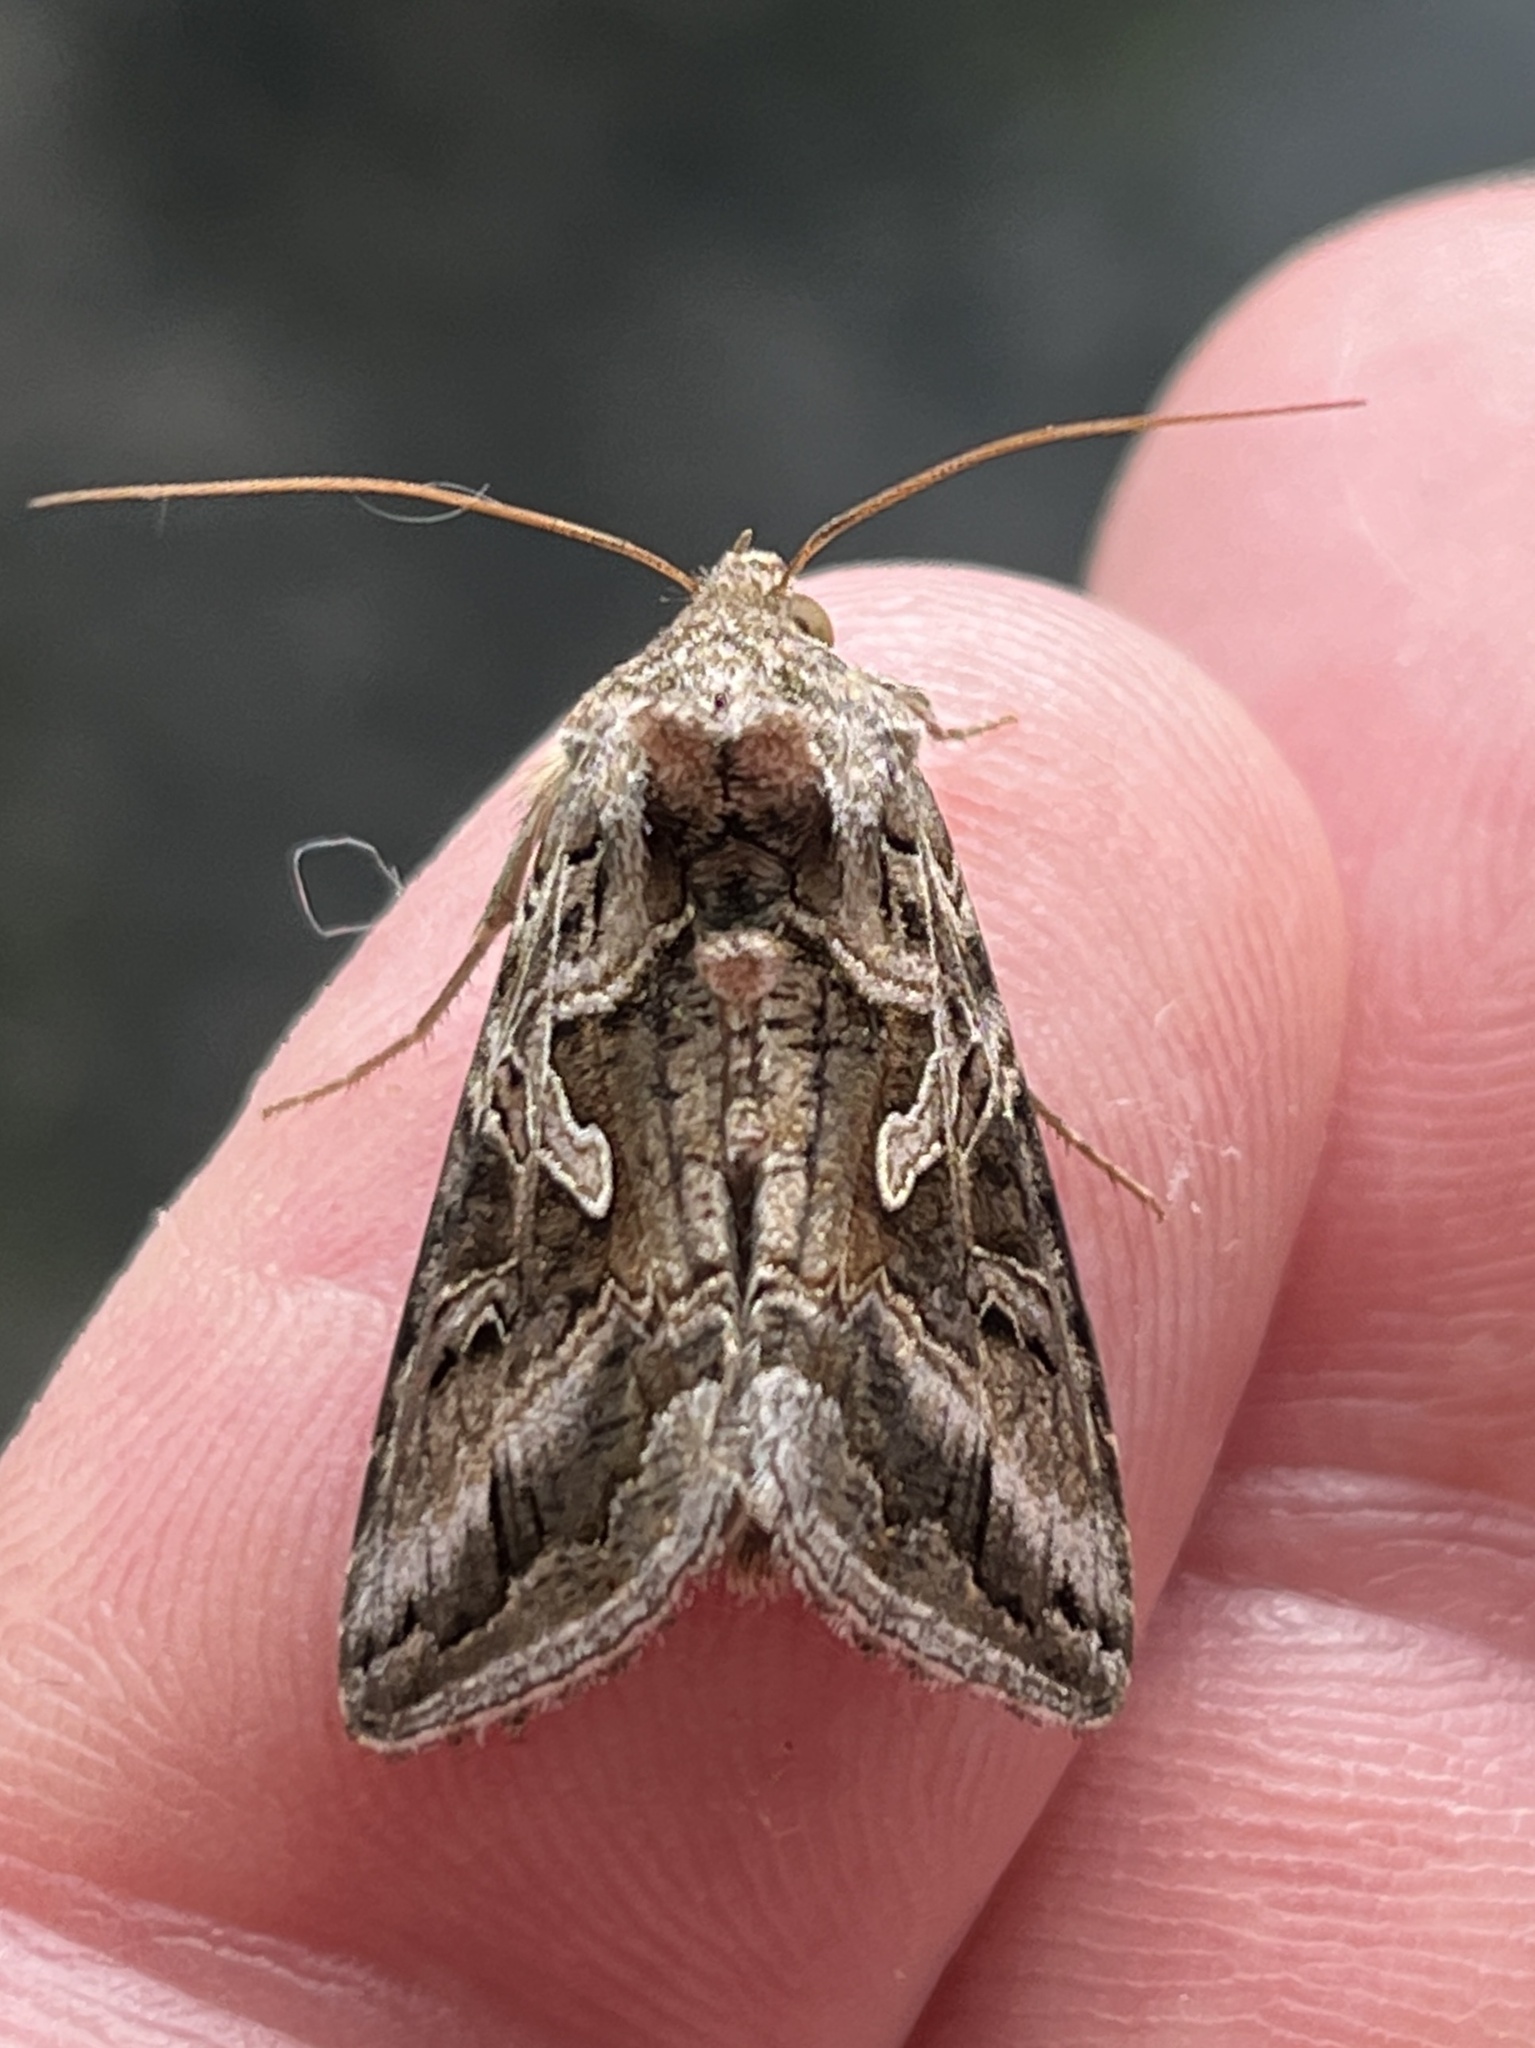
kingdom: Animalia
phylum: Arthropoda
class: Insecta
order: Lepidoptera
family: Noctuidae
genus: Cornutiplusia
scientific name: Cornutiplusia circumflexa
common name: Yorkshire y
